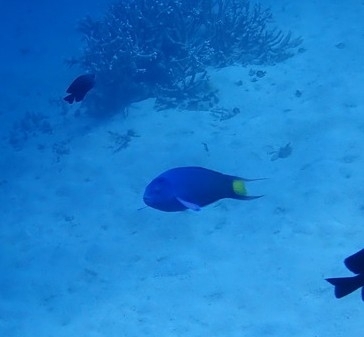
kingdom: Animalia
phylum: Chordata
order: Perciformes
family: Labridae
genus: Thalassoma
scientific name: Thalassoma lunare
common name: Blue wrasse
